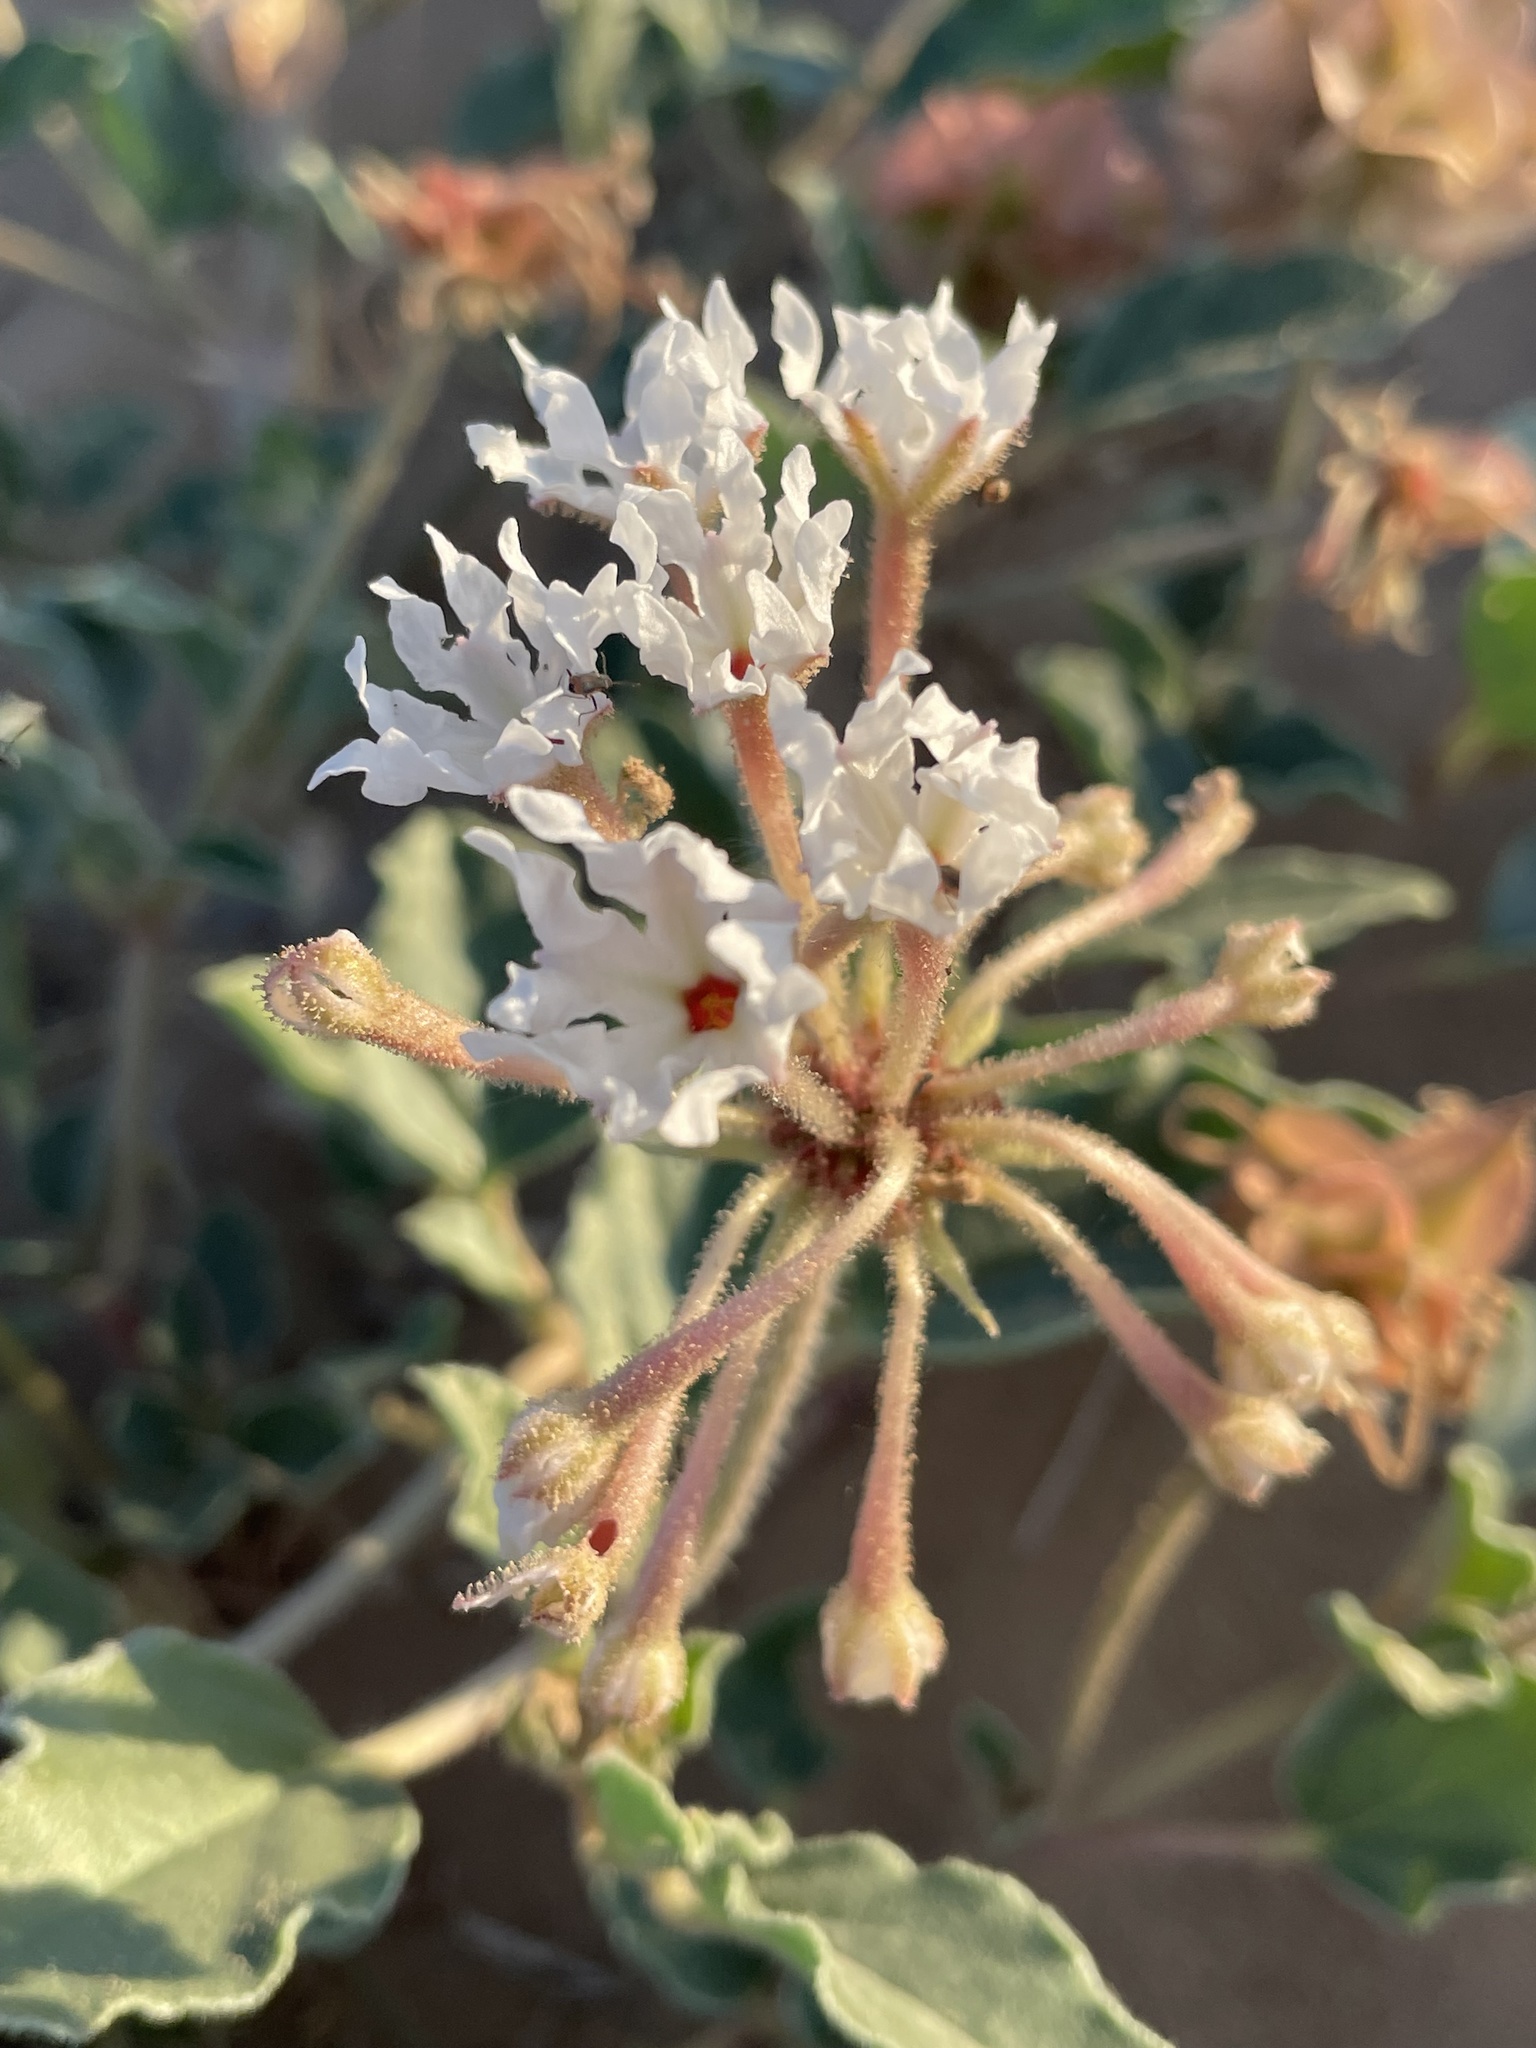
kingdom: Plantae
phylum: Tracheophyta
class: Magnoliopsida
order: Caryophyllales
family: Nyctaginaceae
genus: Tripterocalyx
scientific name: Tripterocalyx carneus
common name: Winged sandpuffs
